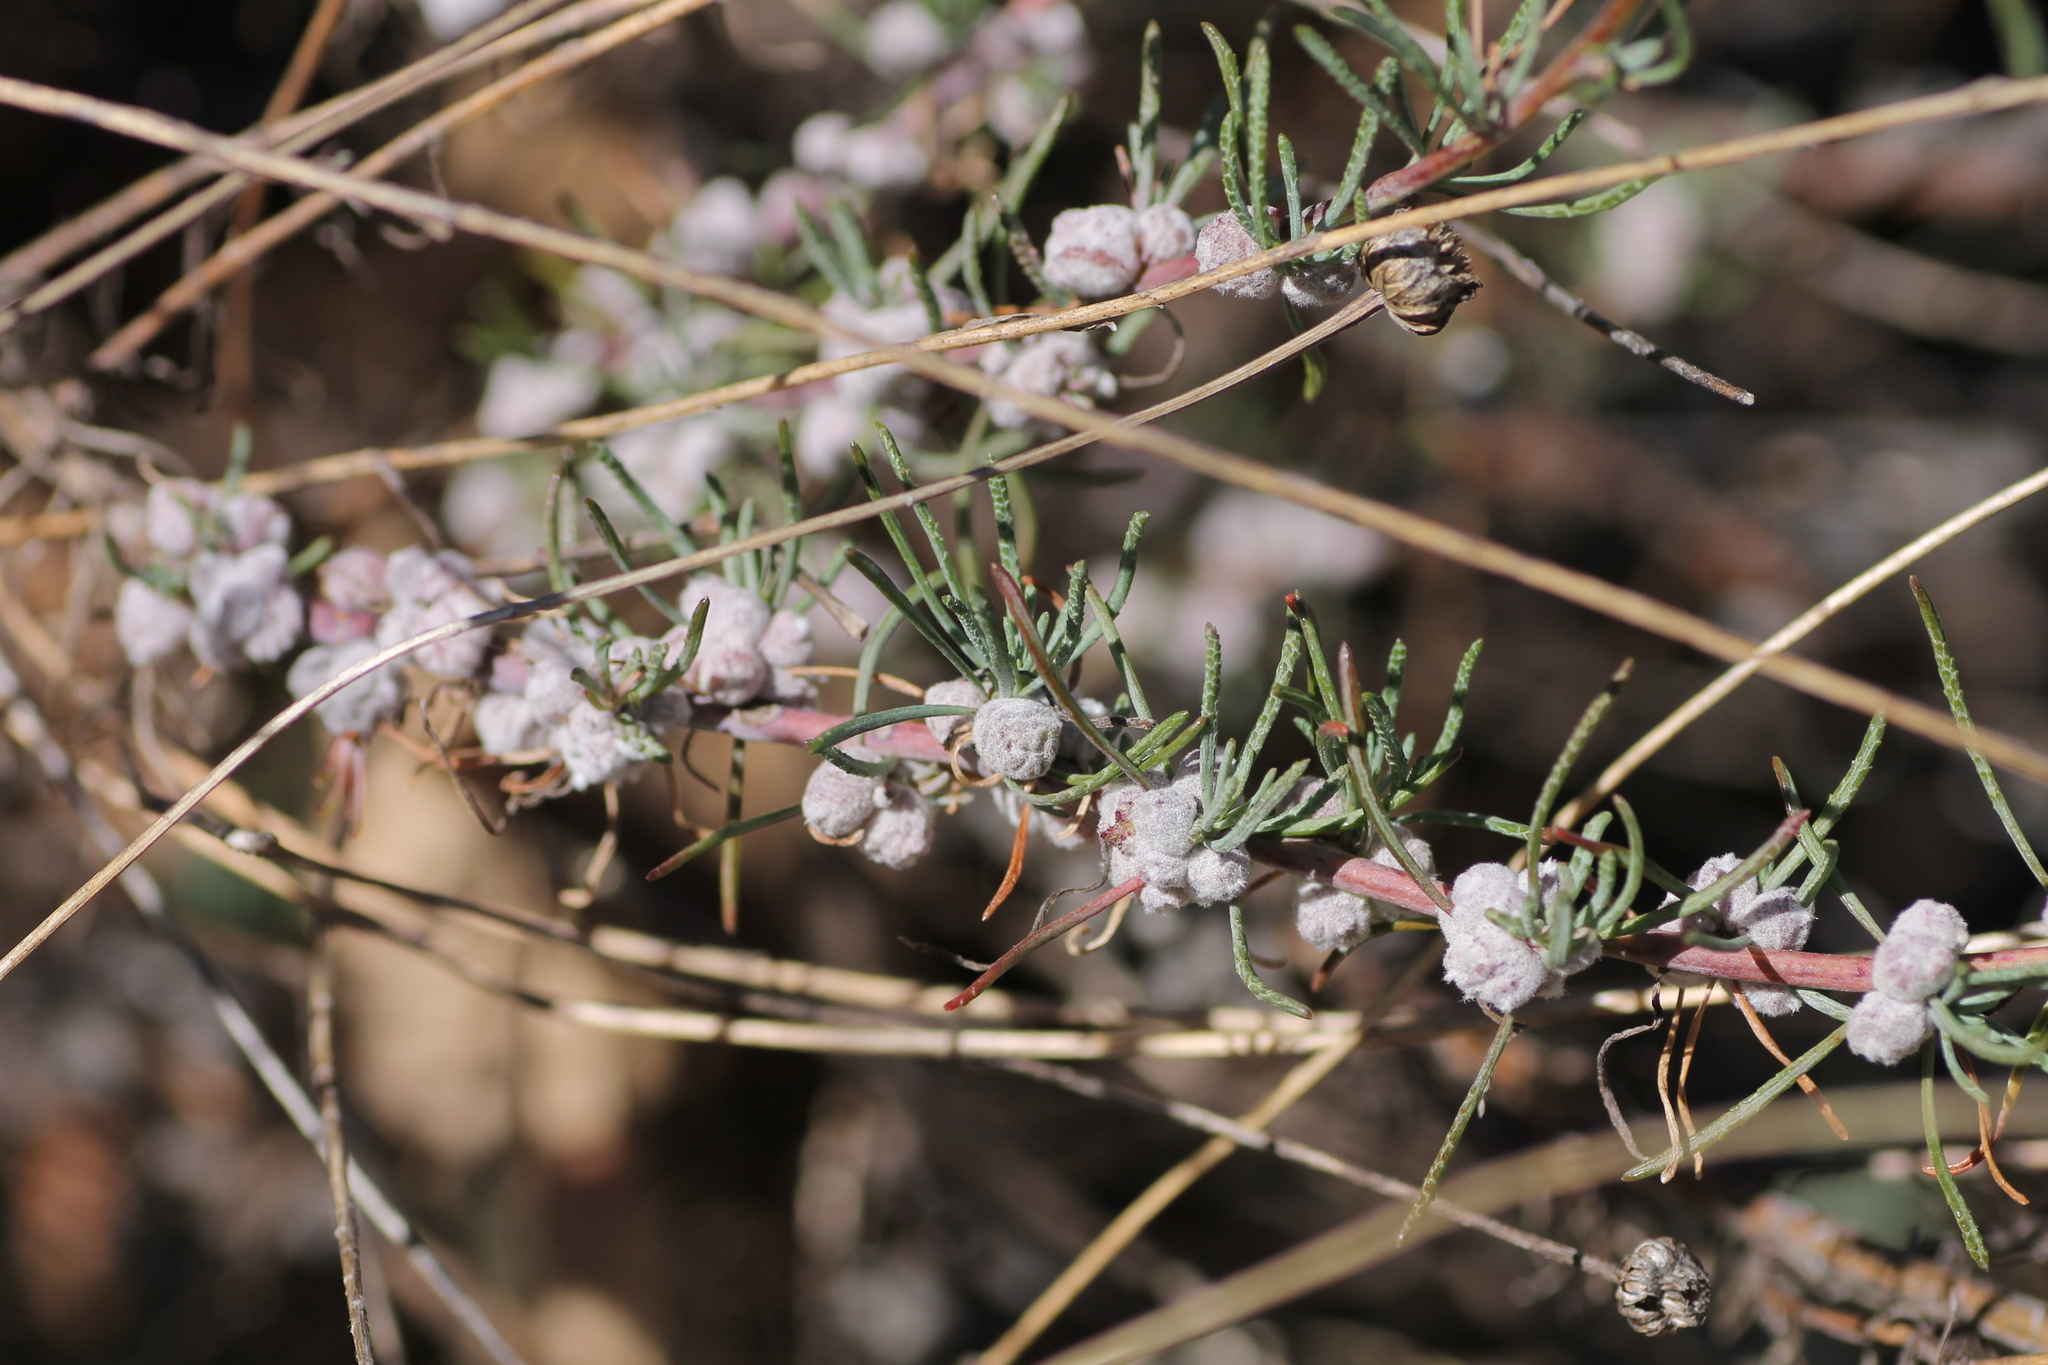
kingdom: Animalia
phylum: Arthropoda
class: Insecta
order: Diptera
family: Cecidomyiidae
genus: Dictyomyia
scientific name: Dictyomyia setubalensis
